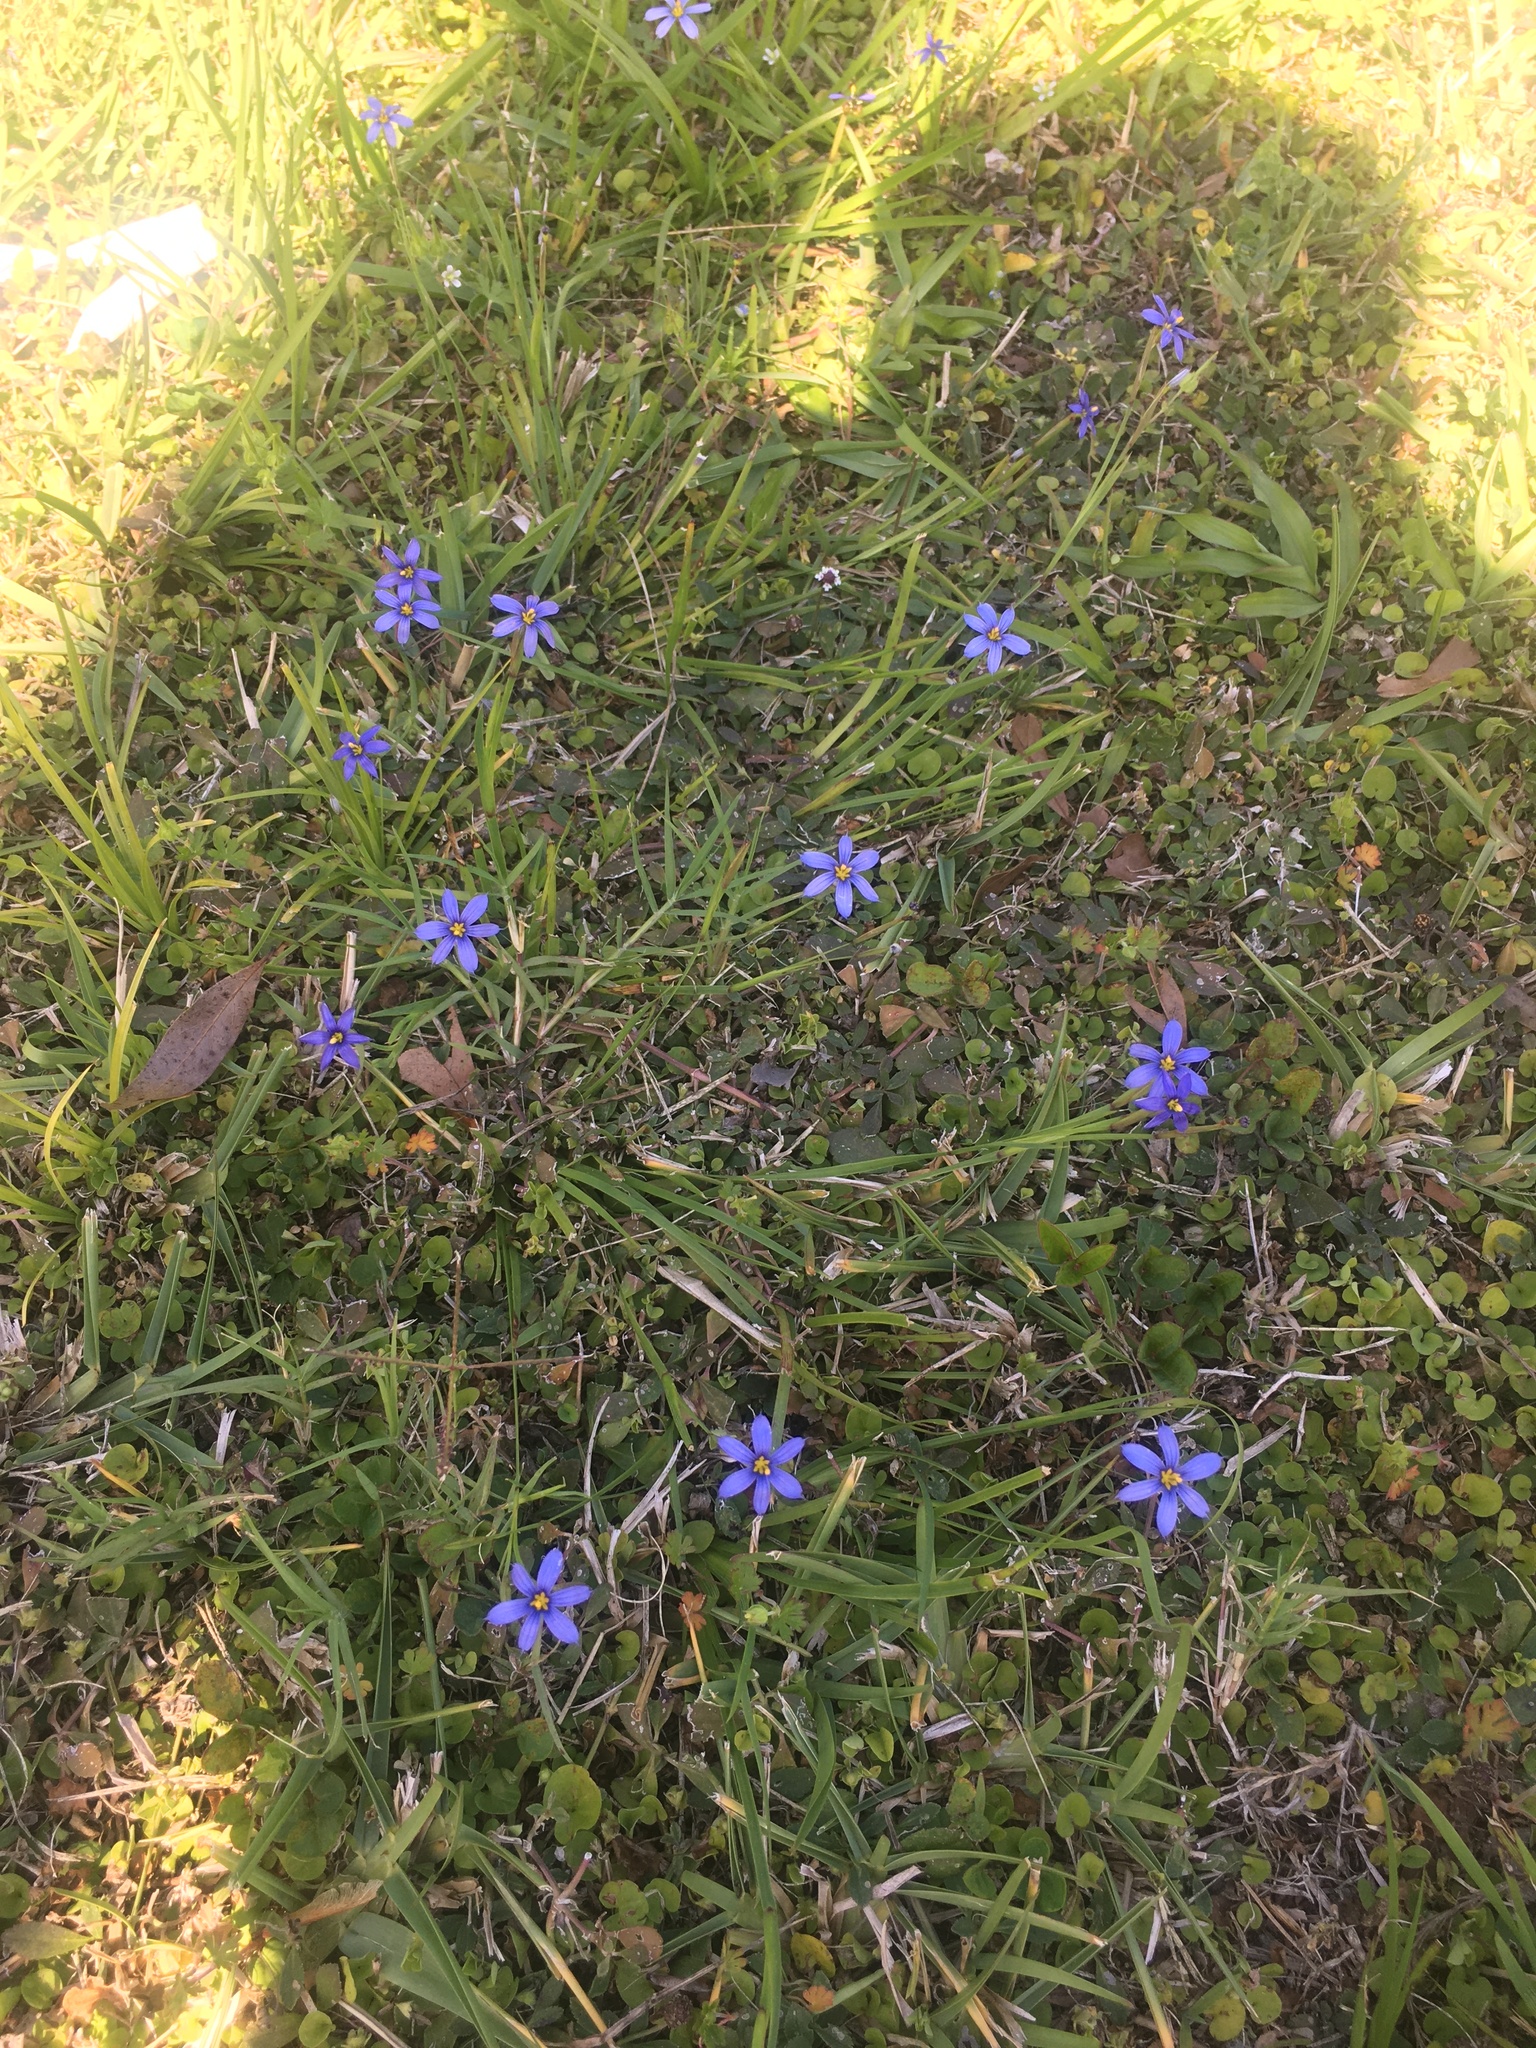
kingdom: Plantae
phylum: Tracheophyta
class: Liliopsida
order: Asparagales
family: Iridaceae
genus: Sisyrinchium
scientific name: Sisyrinchium angustifolium
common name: Narrow-leaf blue-eyed-grass
